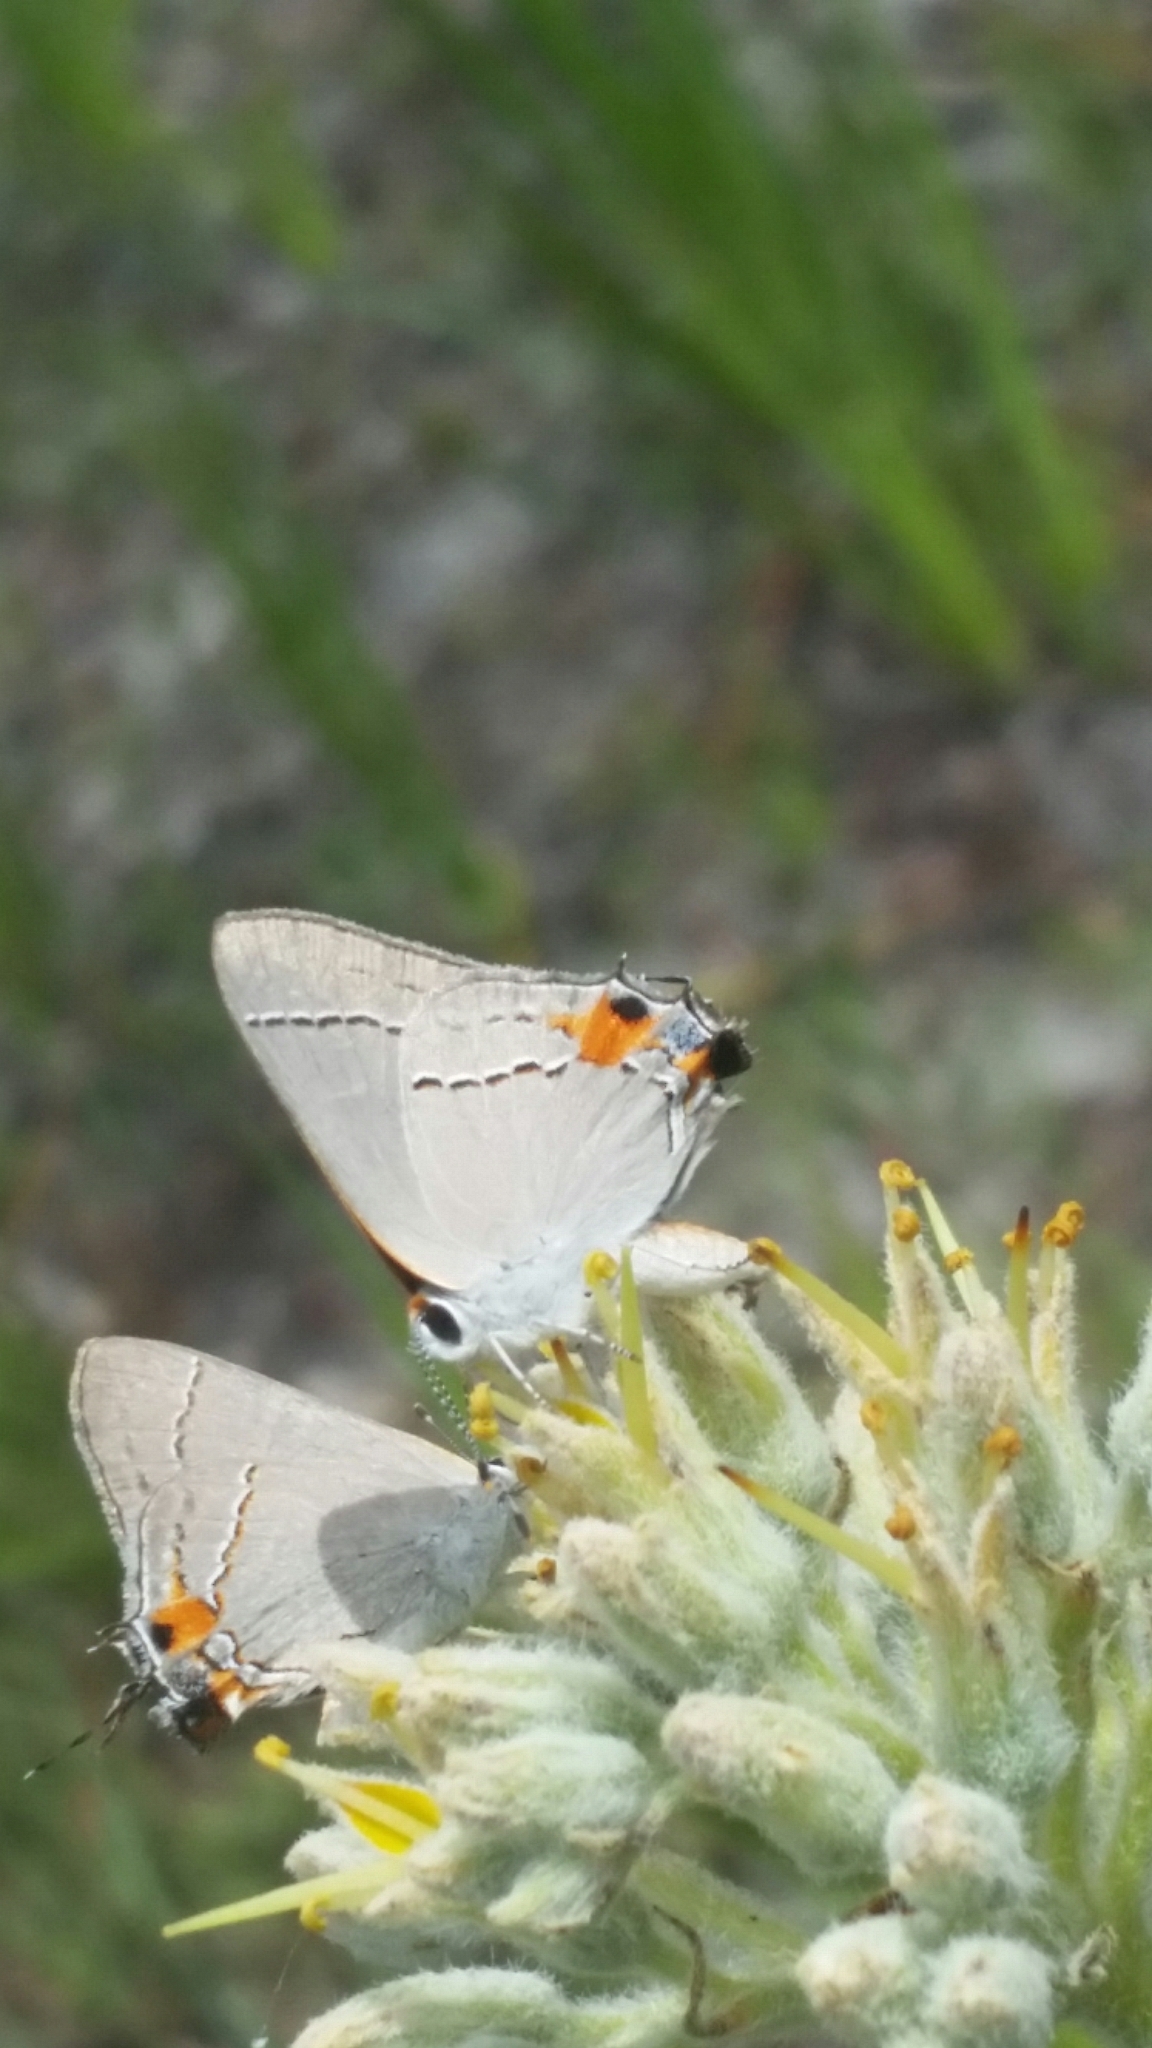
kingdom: Animalia
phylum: Arthropoda
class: Insecta
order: Lepidoptera
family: Lycaenidae
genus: Strymon
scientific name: Strymon melinus
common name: Gray hairstreak
